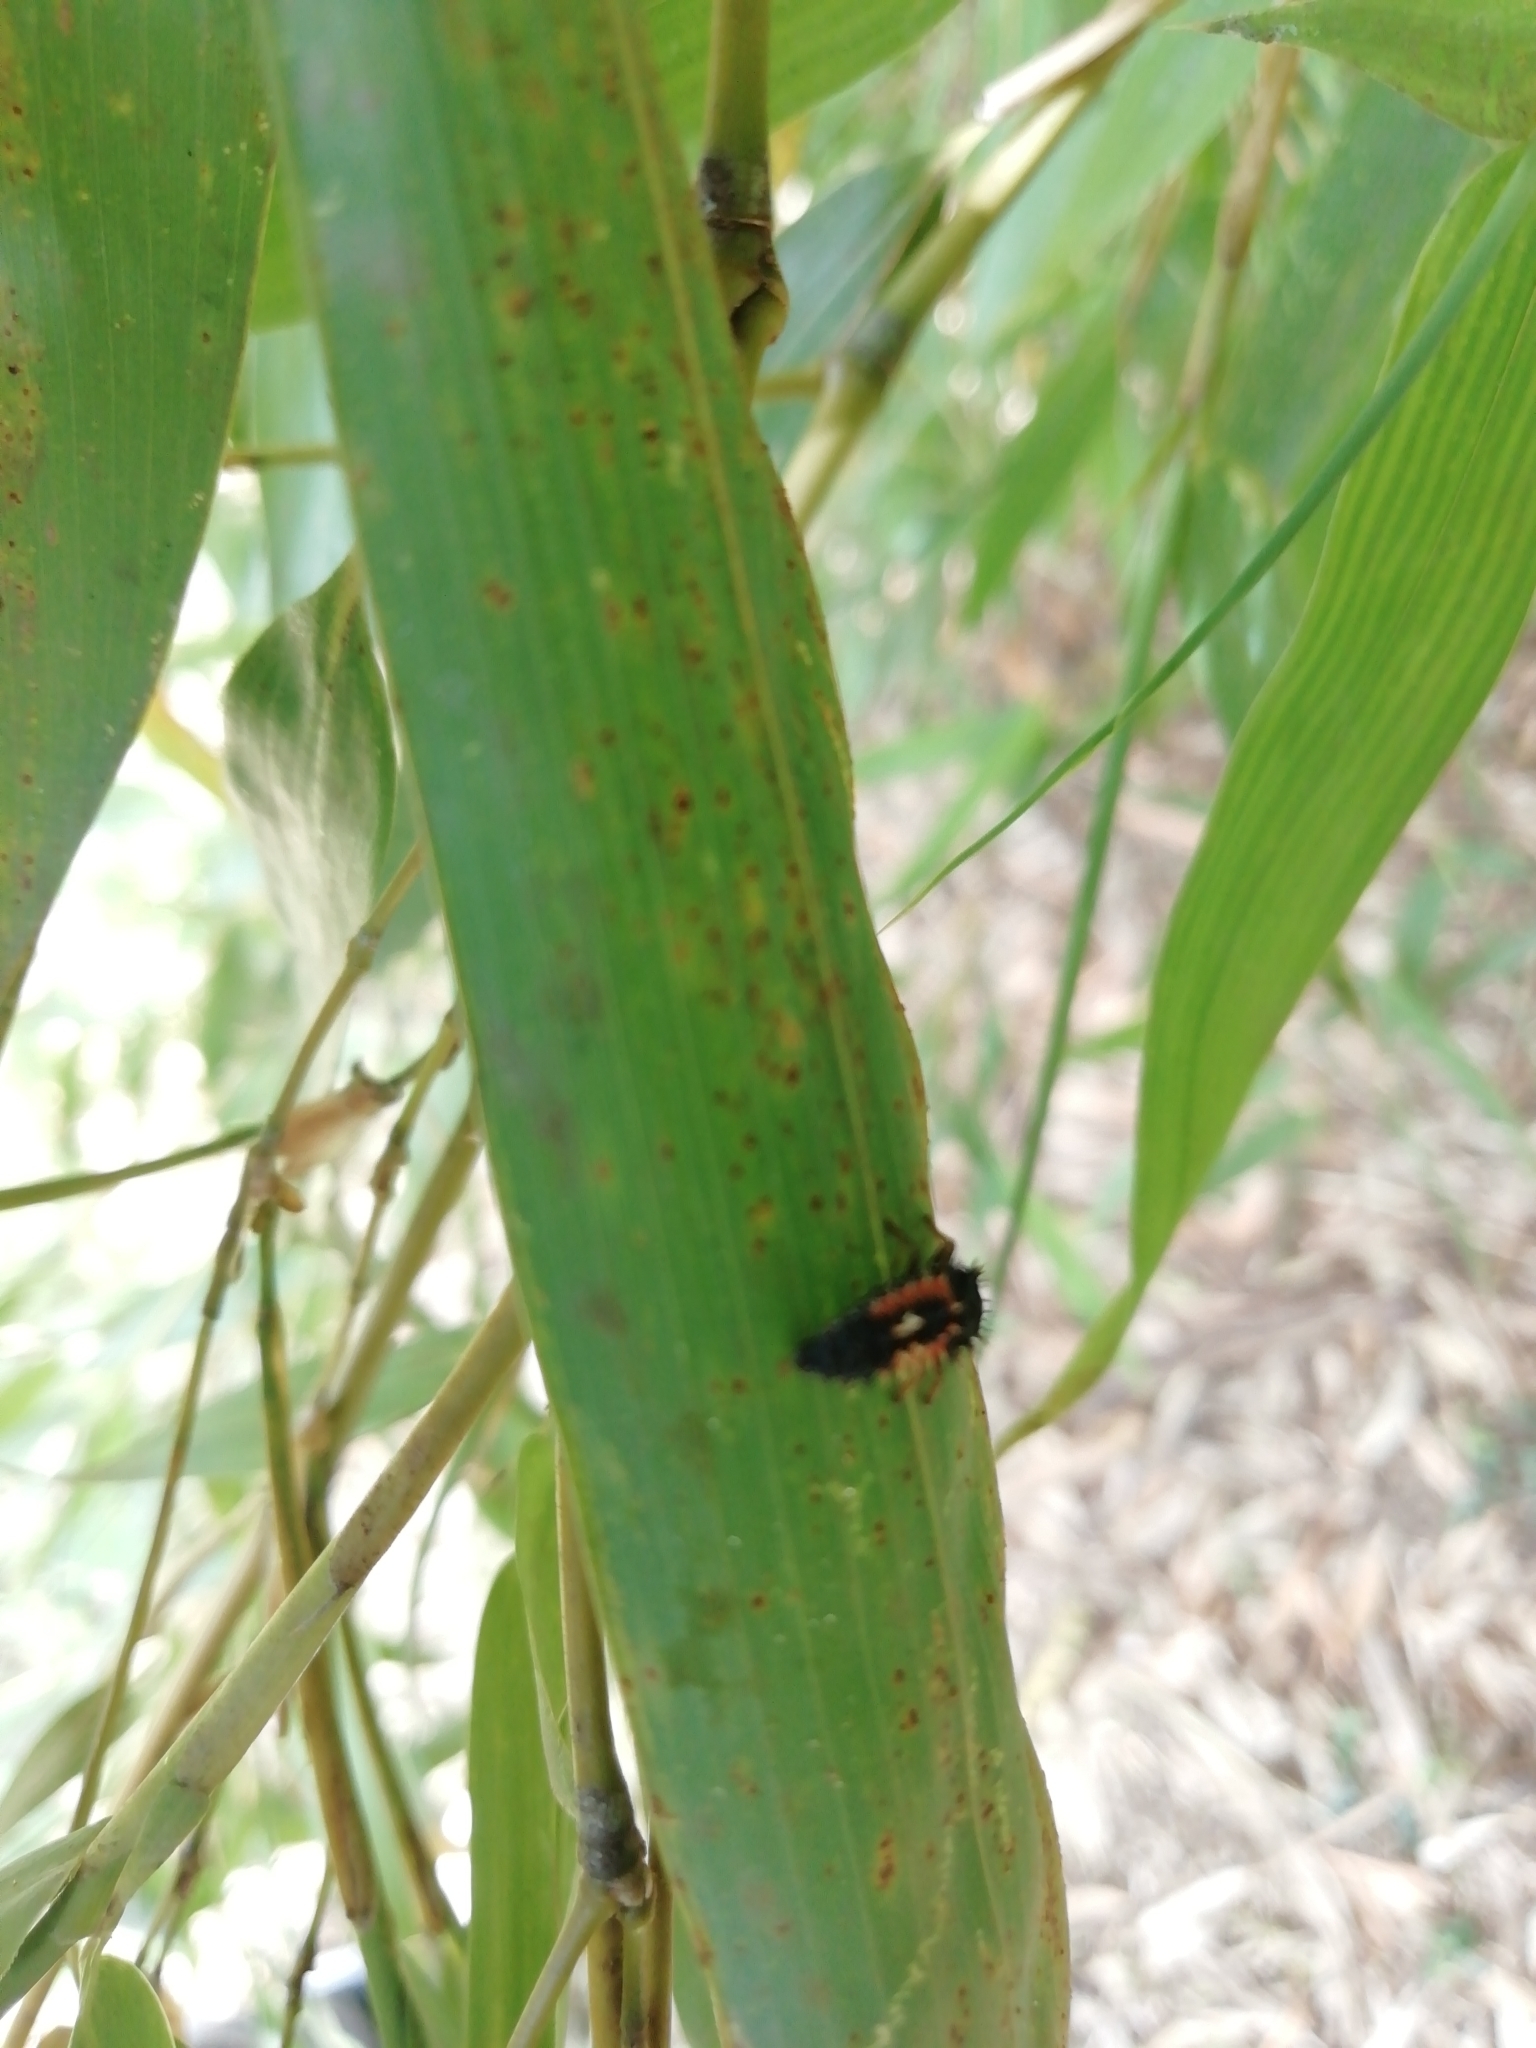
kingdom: Animalia
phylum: Arthropoda
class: Insecta
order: Coleoptera
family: Coccinellidae
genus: Harmonia
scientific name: Harmonia axyridis
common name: Harlequin ladybird
